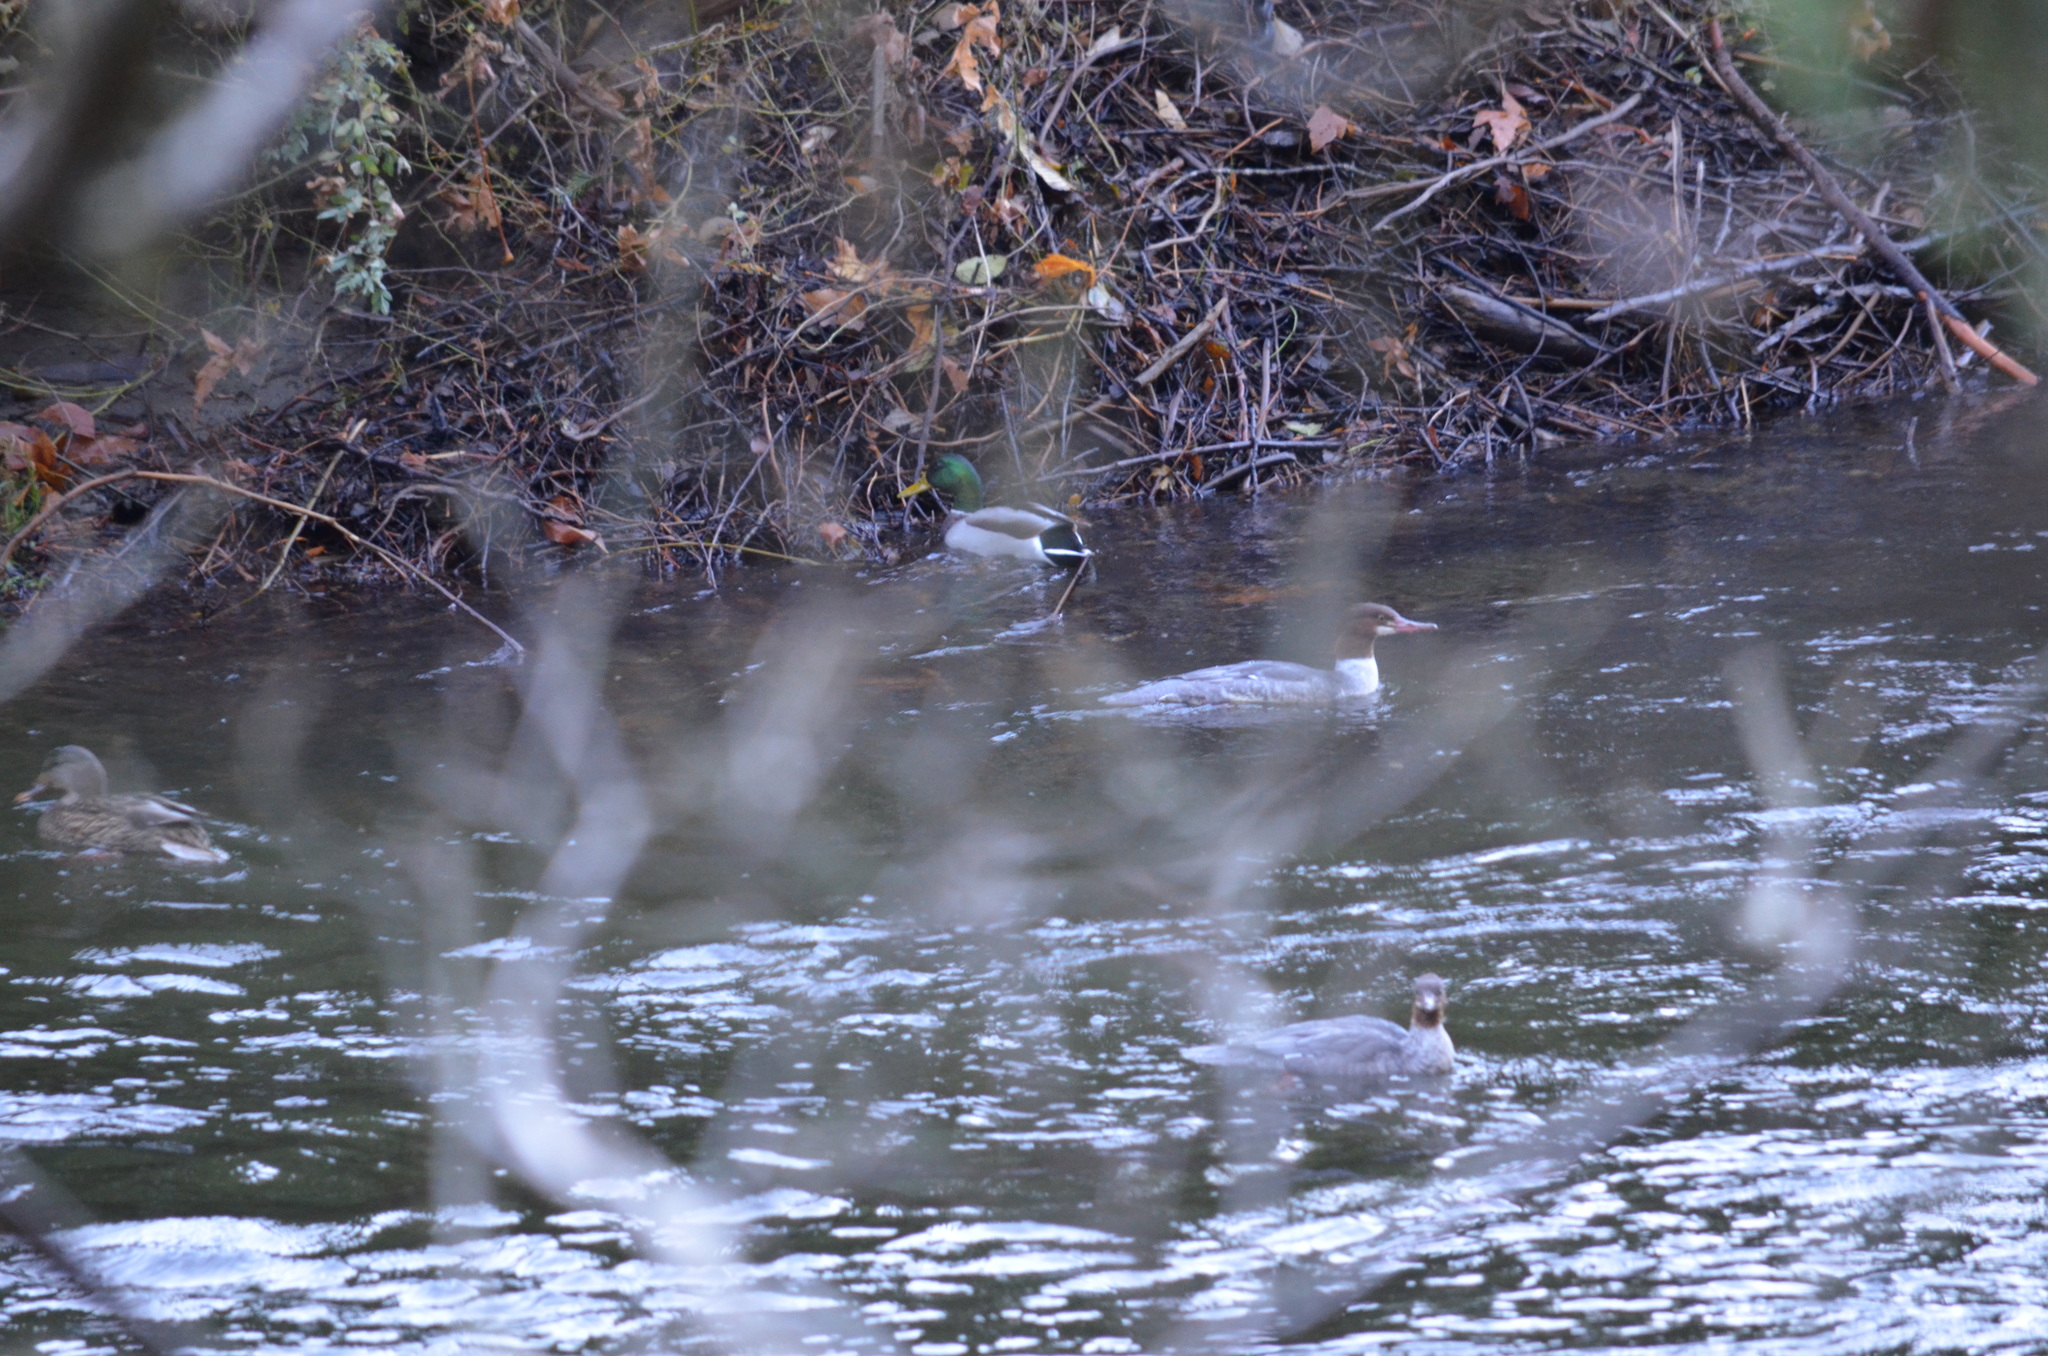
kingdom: Animalia
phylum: Chordata
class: Aves
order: Anseriformes
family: Anatidae
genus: Anas
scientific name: Anas platyrhynchos
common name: Mallard
